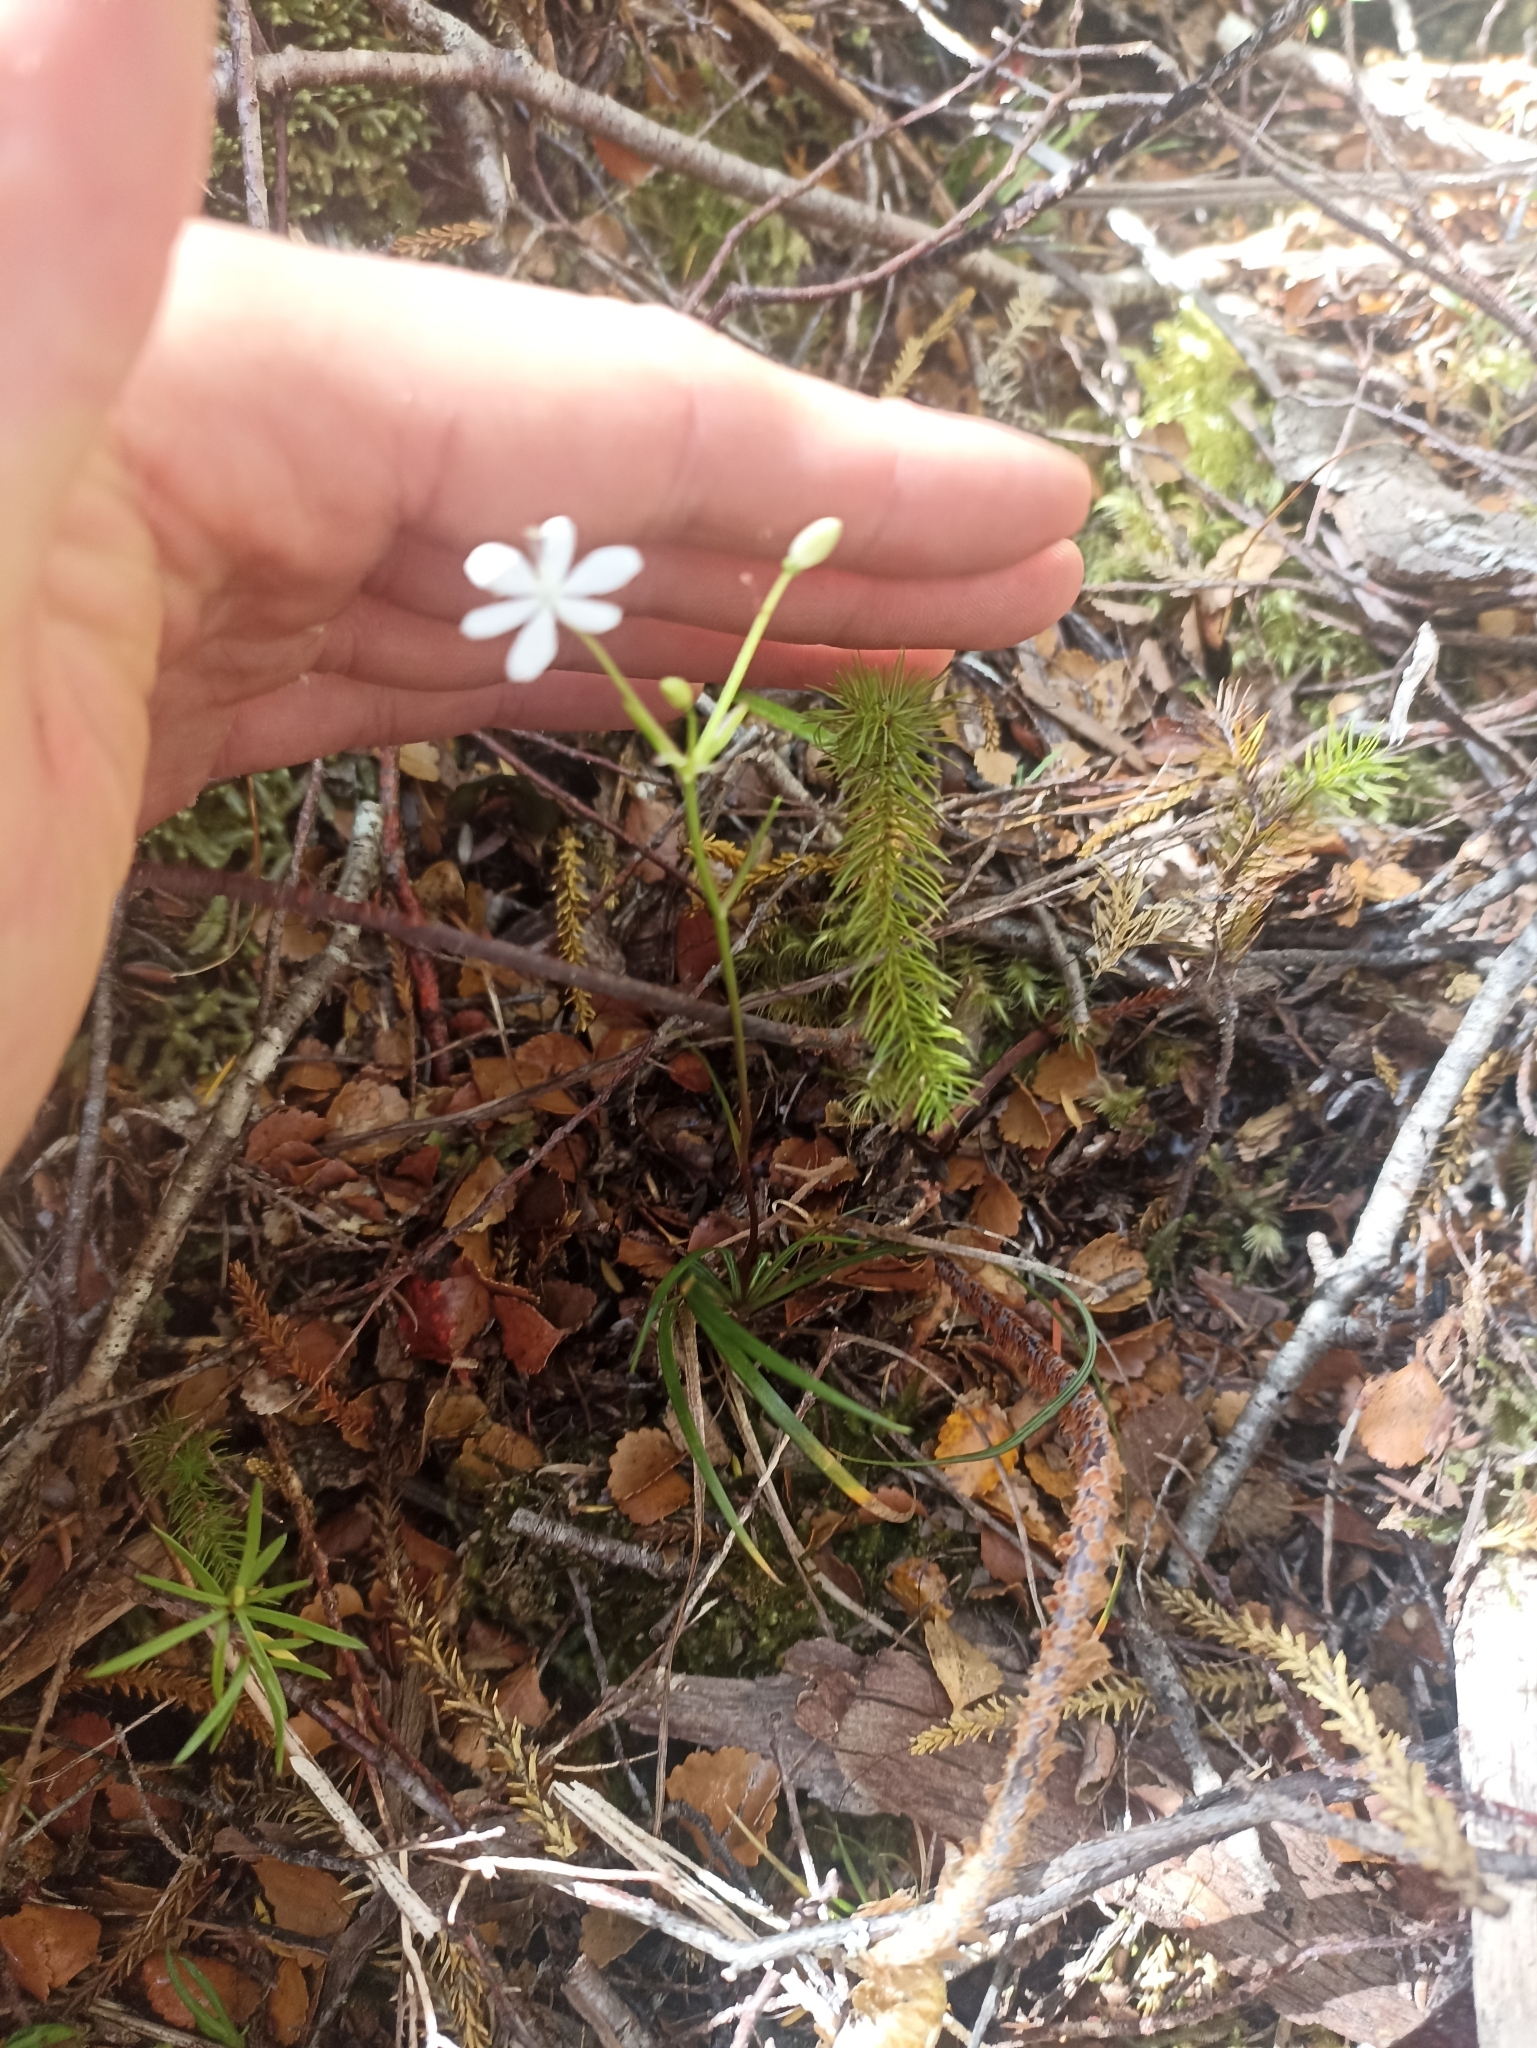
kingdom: Plantae
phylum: Tracheophyta
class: Liliopsida
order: Asparagales
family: Iridaceae
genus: Libertia
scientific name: Libertia micrantha
